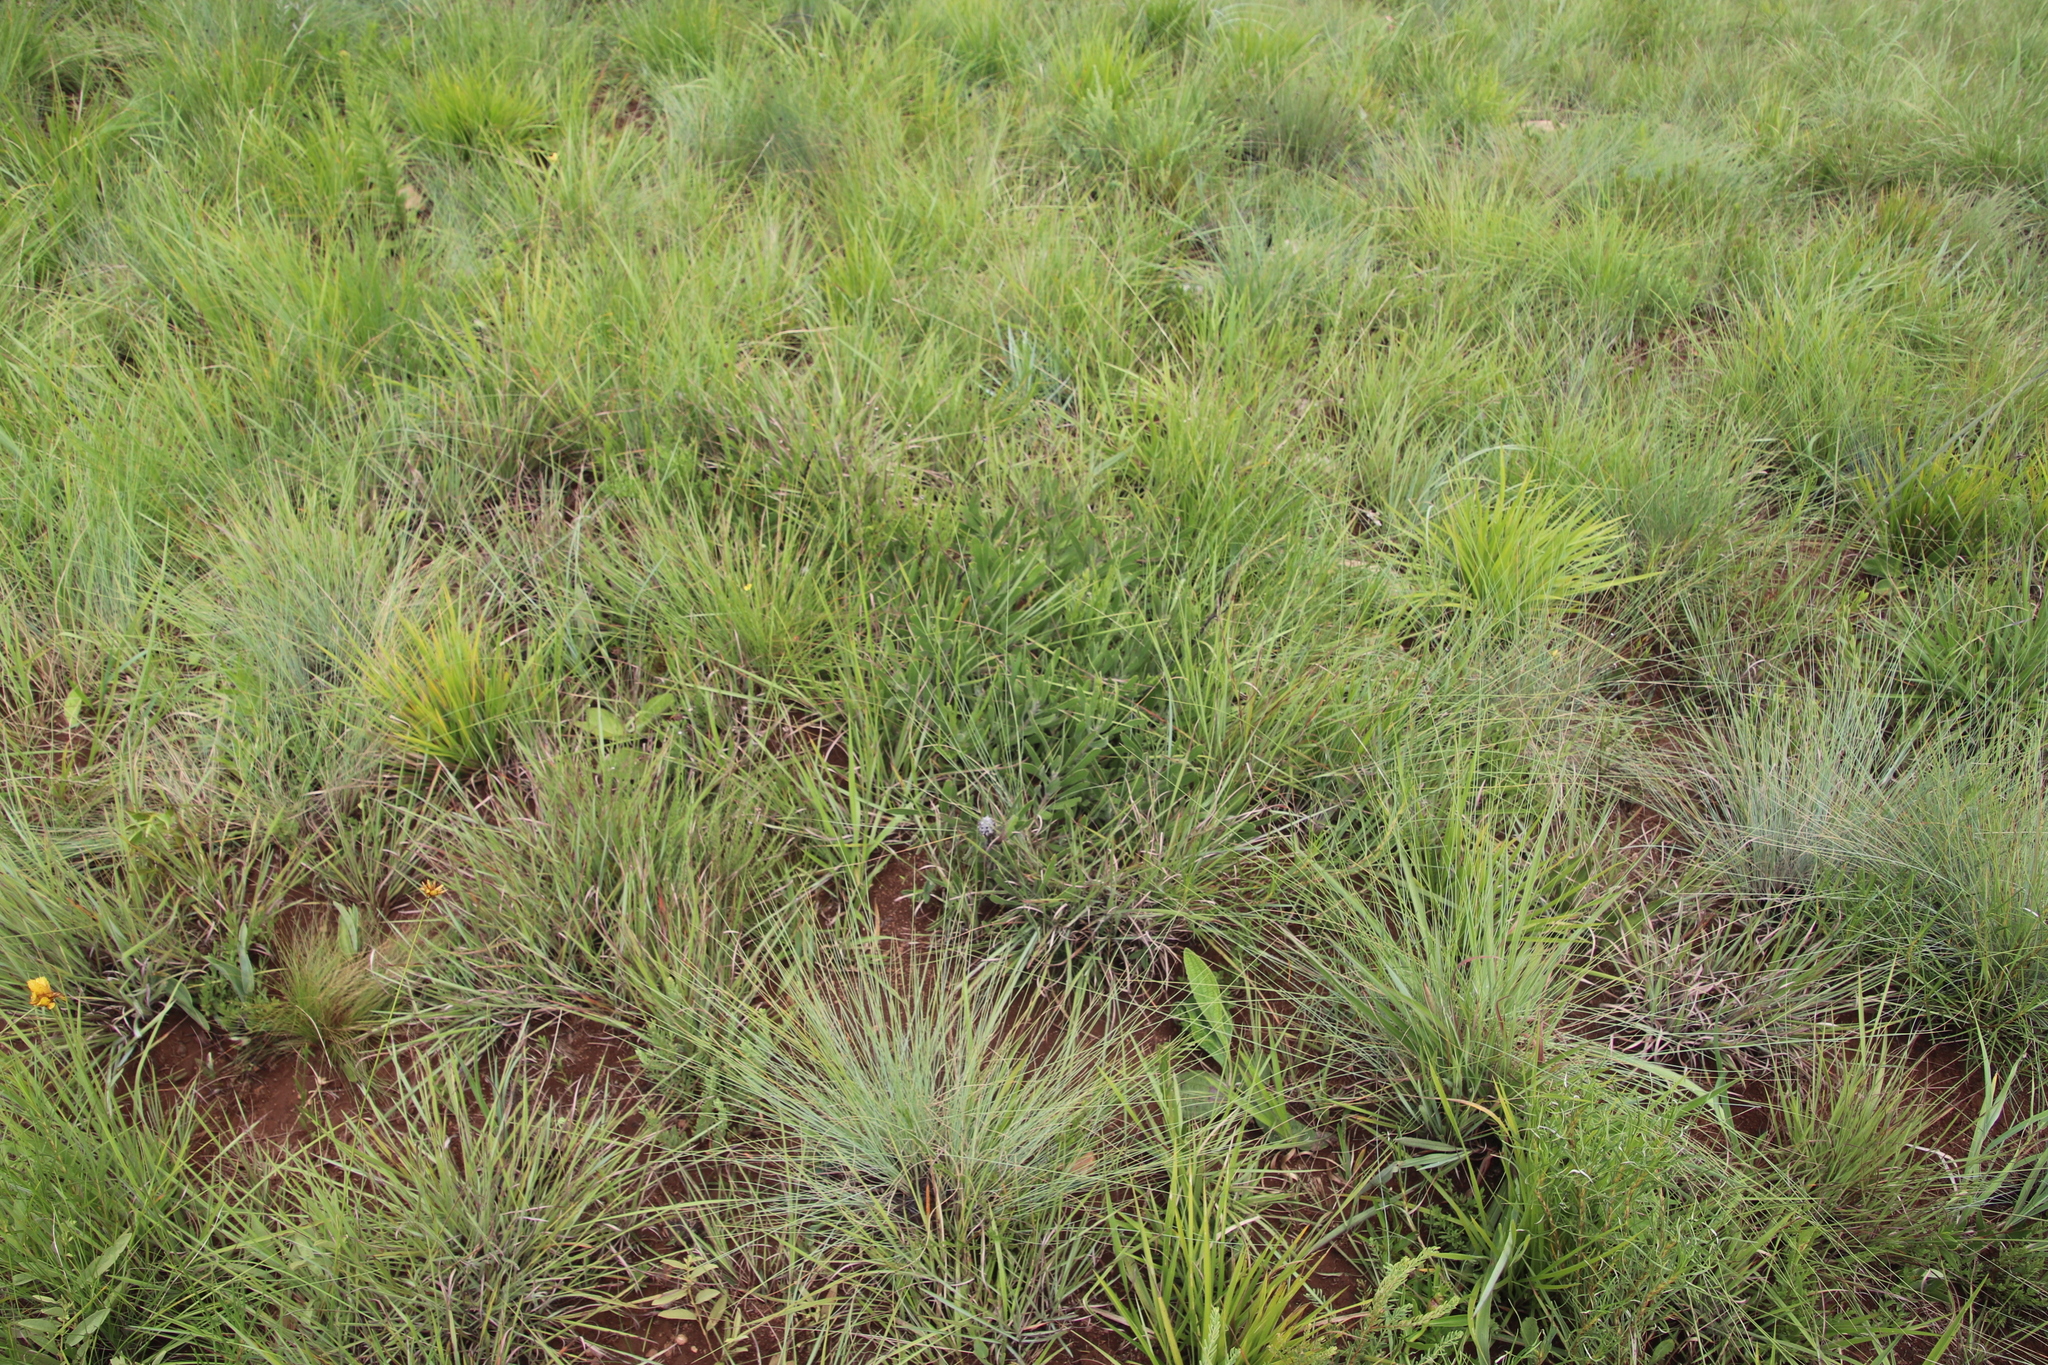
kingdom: Plantae
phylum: Tracheophyta
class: Magnoliopsida
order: Proteales
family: Proteaceae
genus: Leucospermum
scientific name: Leucospermum gerrardii
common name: Soapstone pincushion
